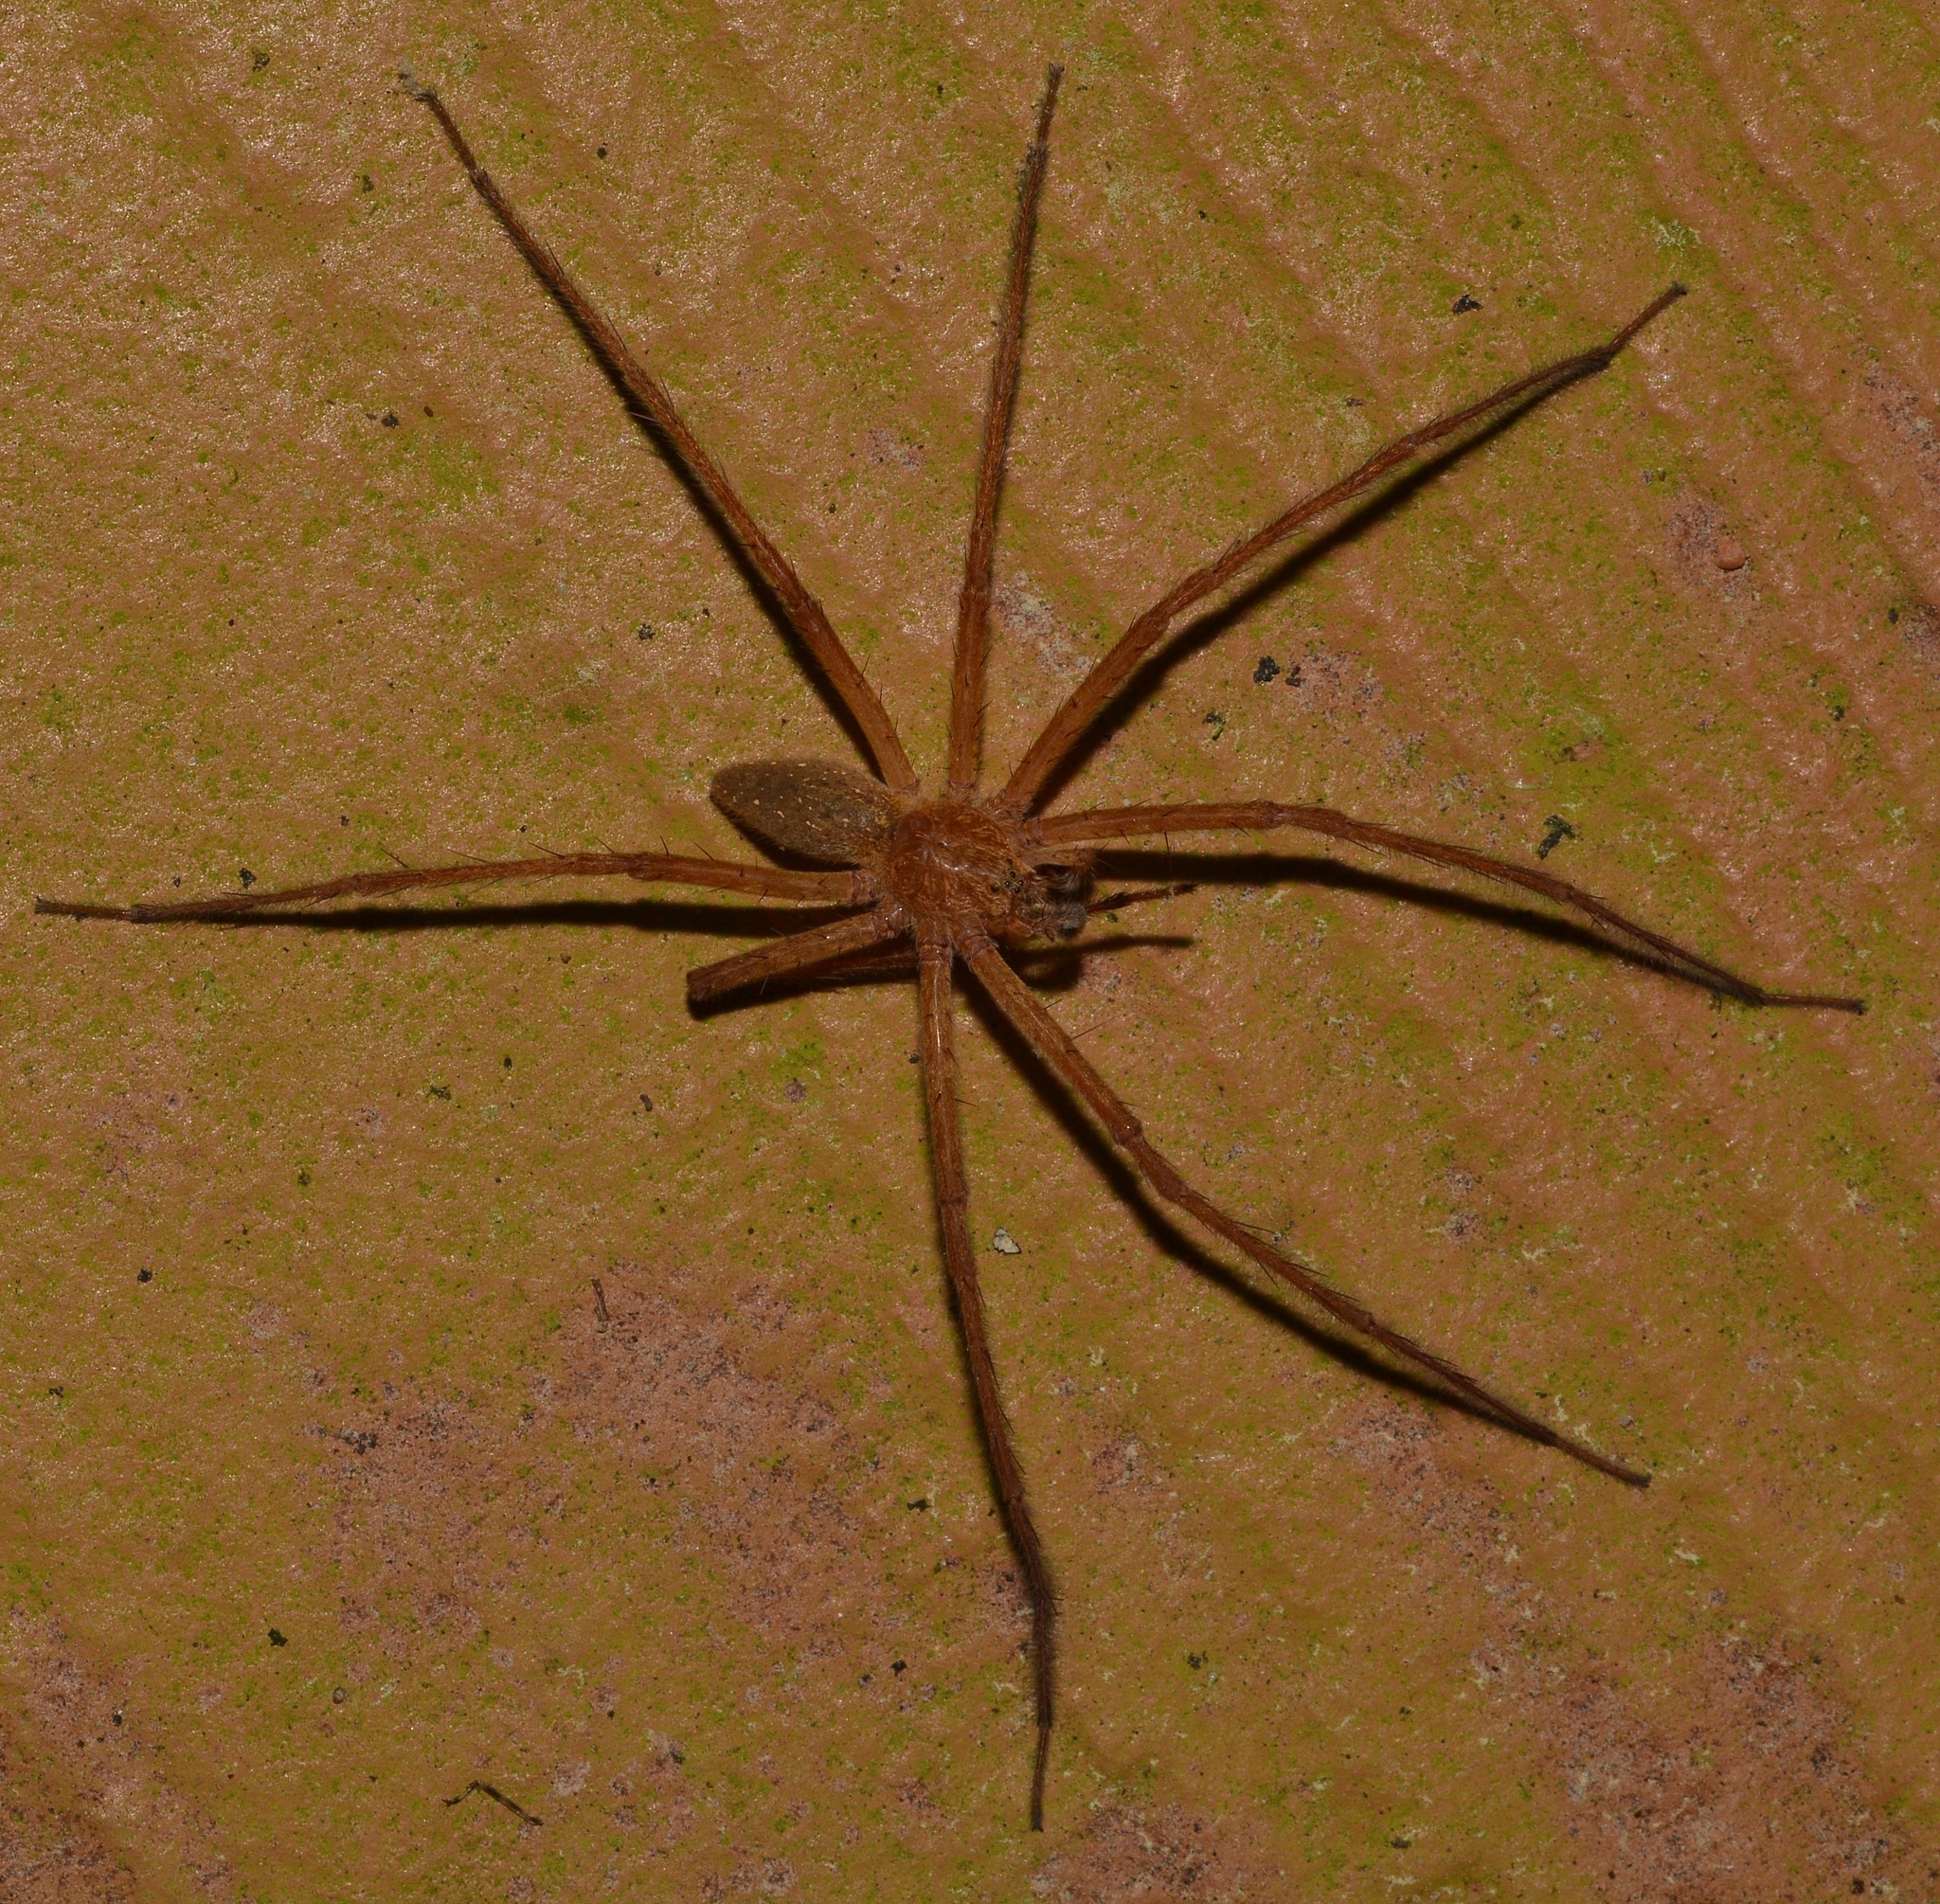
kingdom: Animalia
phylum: Arthropoda
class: Arachnida
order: Araneae
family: Pisauridae
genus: Pisaurina
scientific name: Pisaurina mira
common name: American nursery web spider
